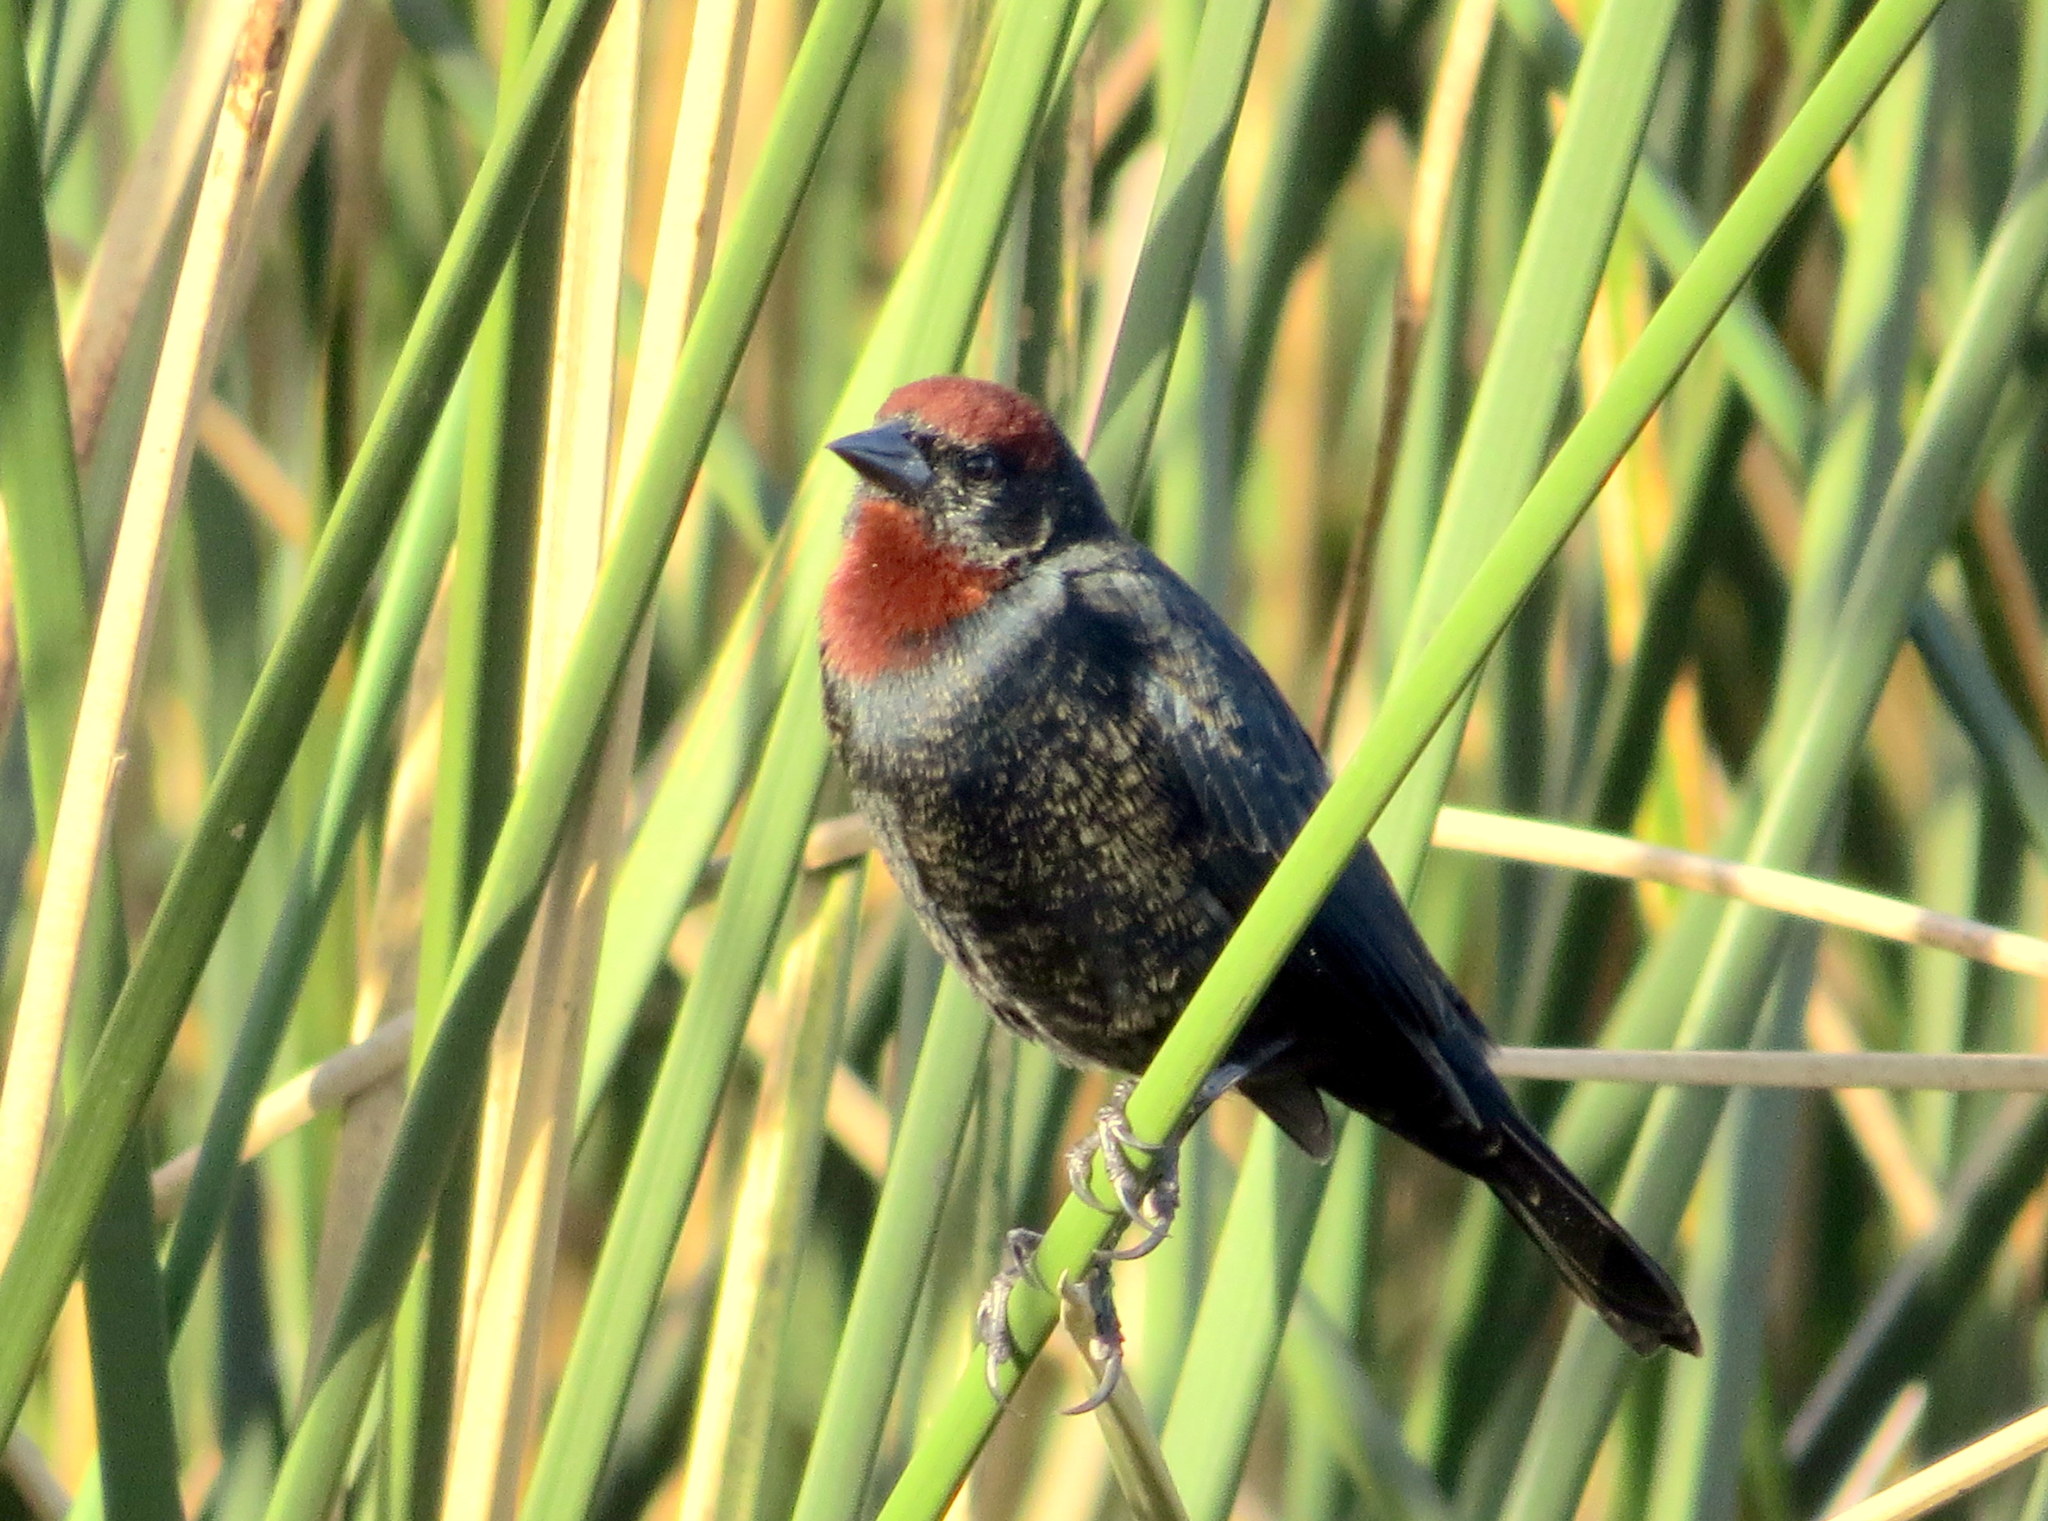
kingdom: Animalia
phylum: Chordata
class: Aves
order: Passeriformes
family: Icteridae
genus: Chrysomus
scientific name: Chrysomus ruficapillus
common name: Chestnut-capped blackbird
